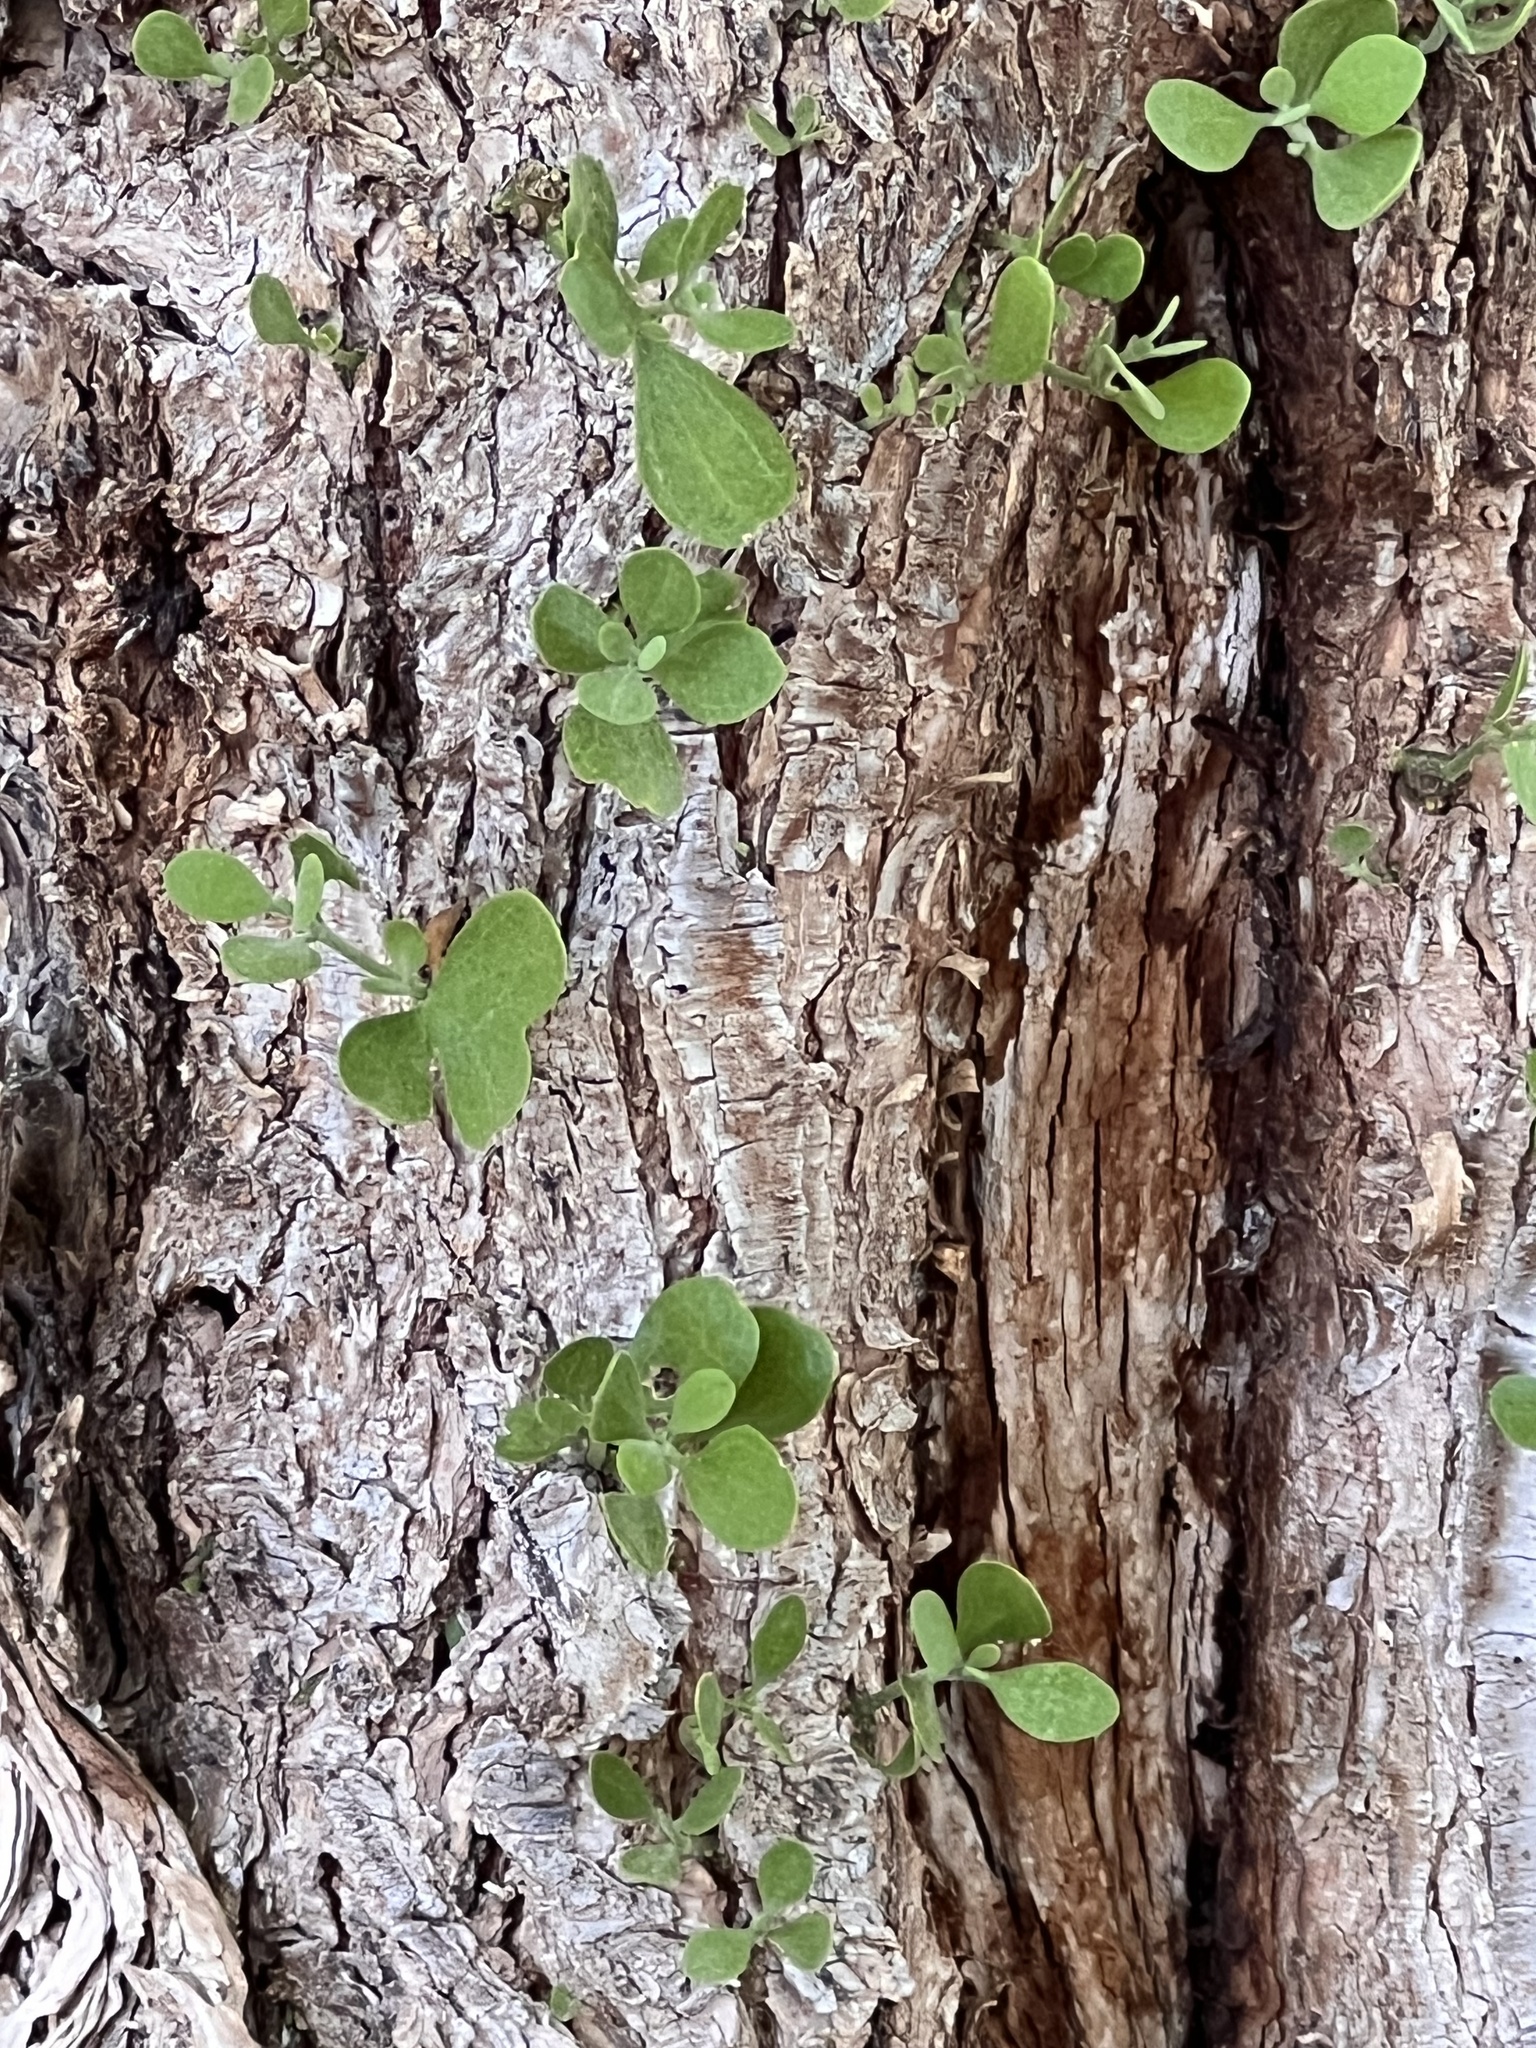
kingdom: Plantae
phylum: Tracheophyta
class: Magnoliopsida
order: Santalales
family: Viscaceae
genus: Phoradendron
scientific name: Phoradendron leucarpum
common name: Pacific mistletoe
